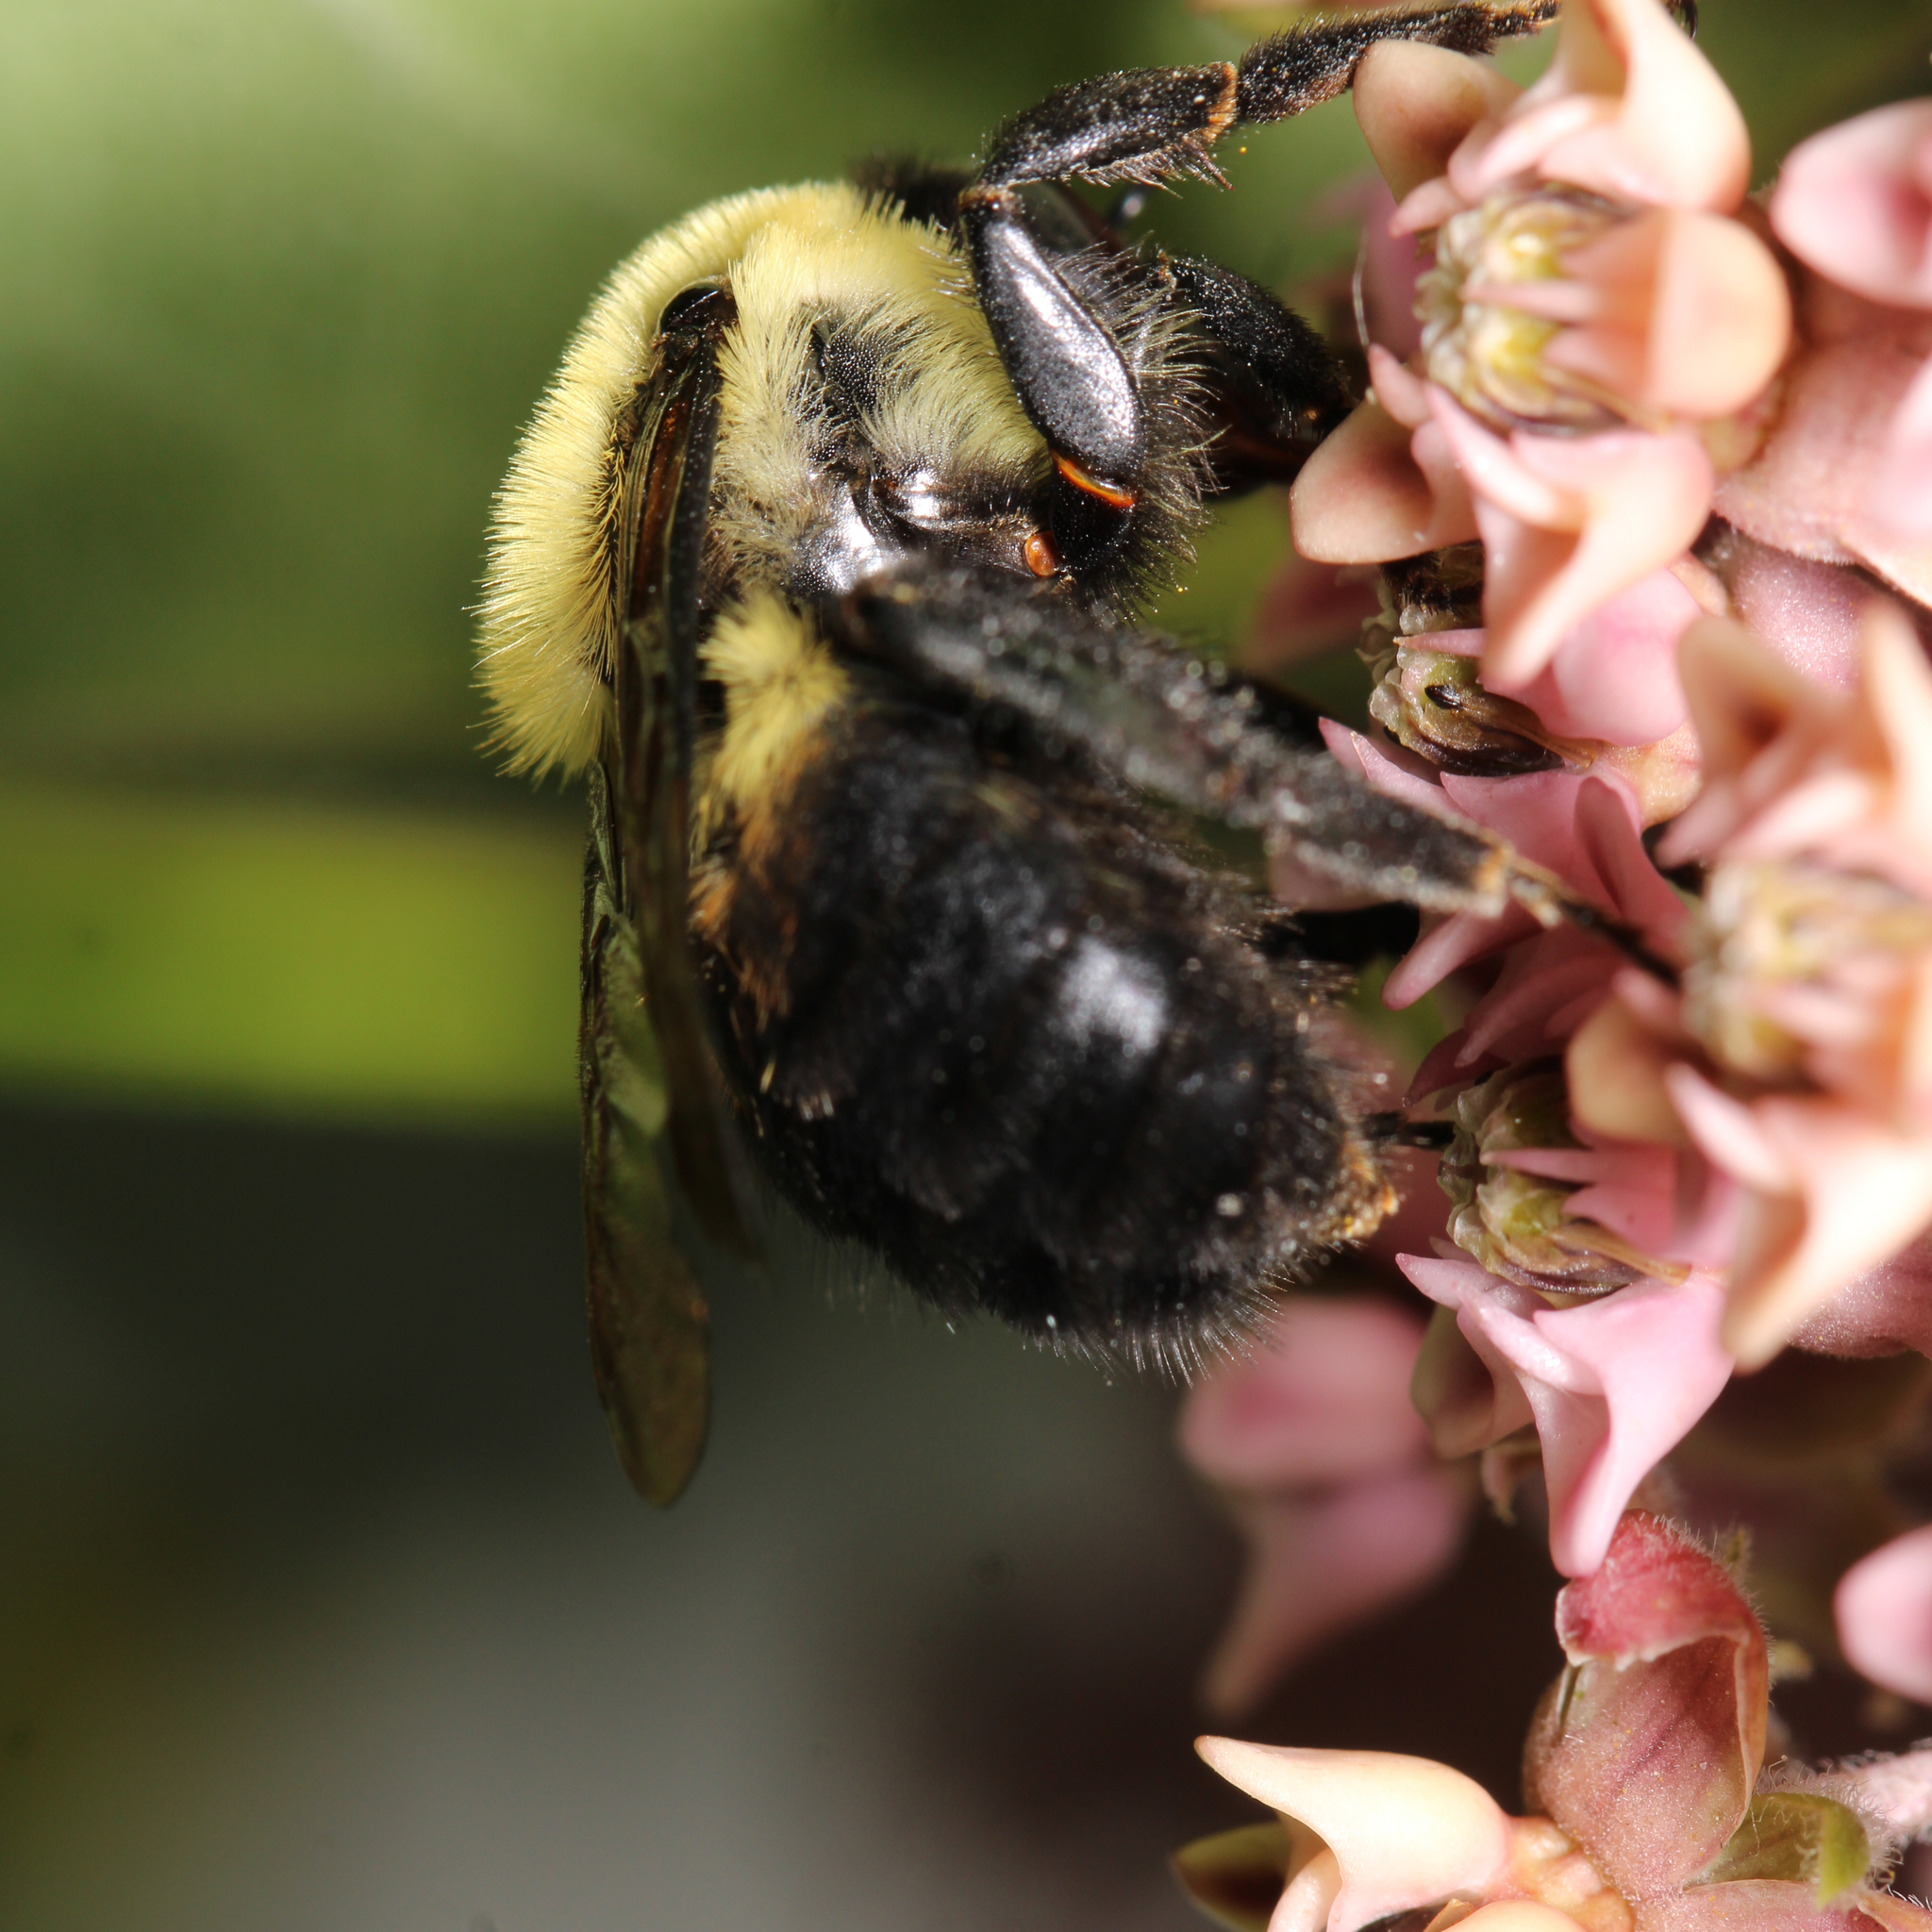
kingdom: Animalia
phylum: Arthropoda
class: Insecta
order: Hymenoptera
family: Apidae
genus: Bombus
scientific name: Bombus griseocollis
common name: Brown-belted bumble bee
